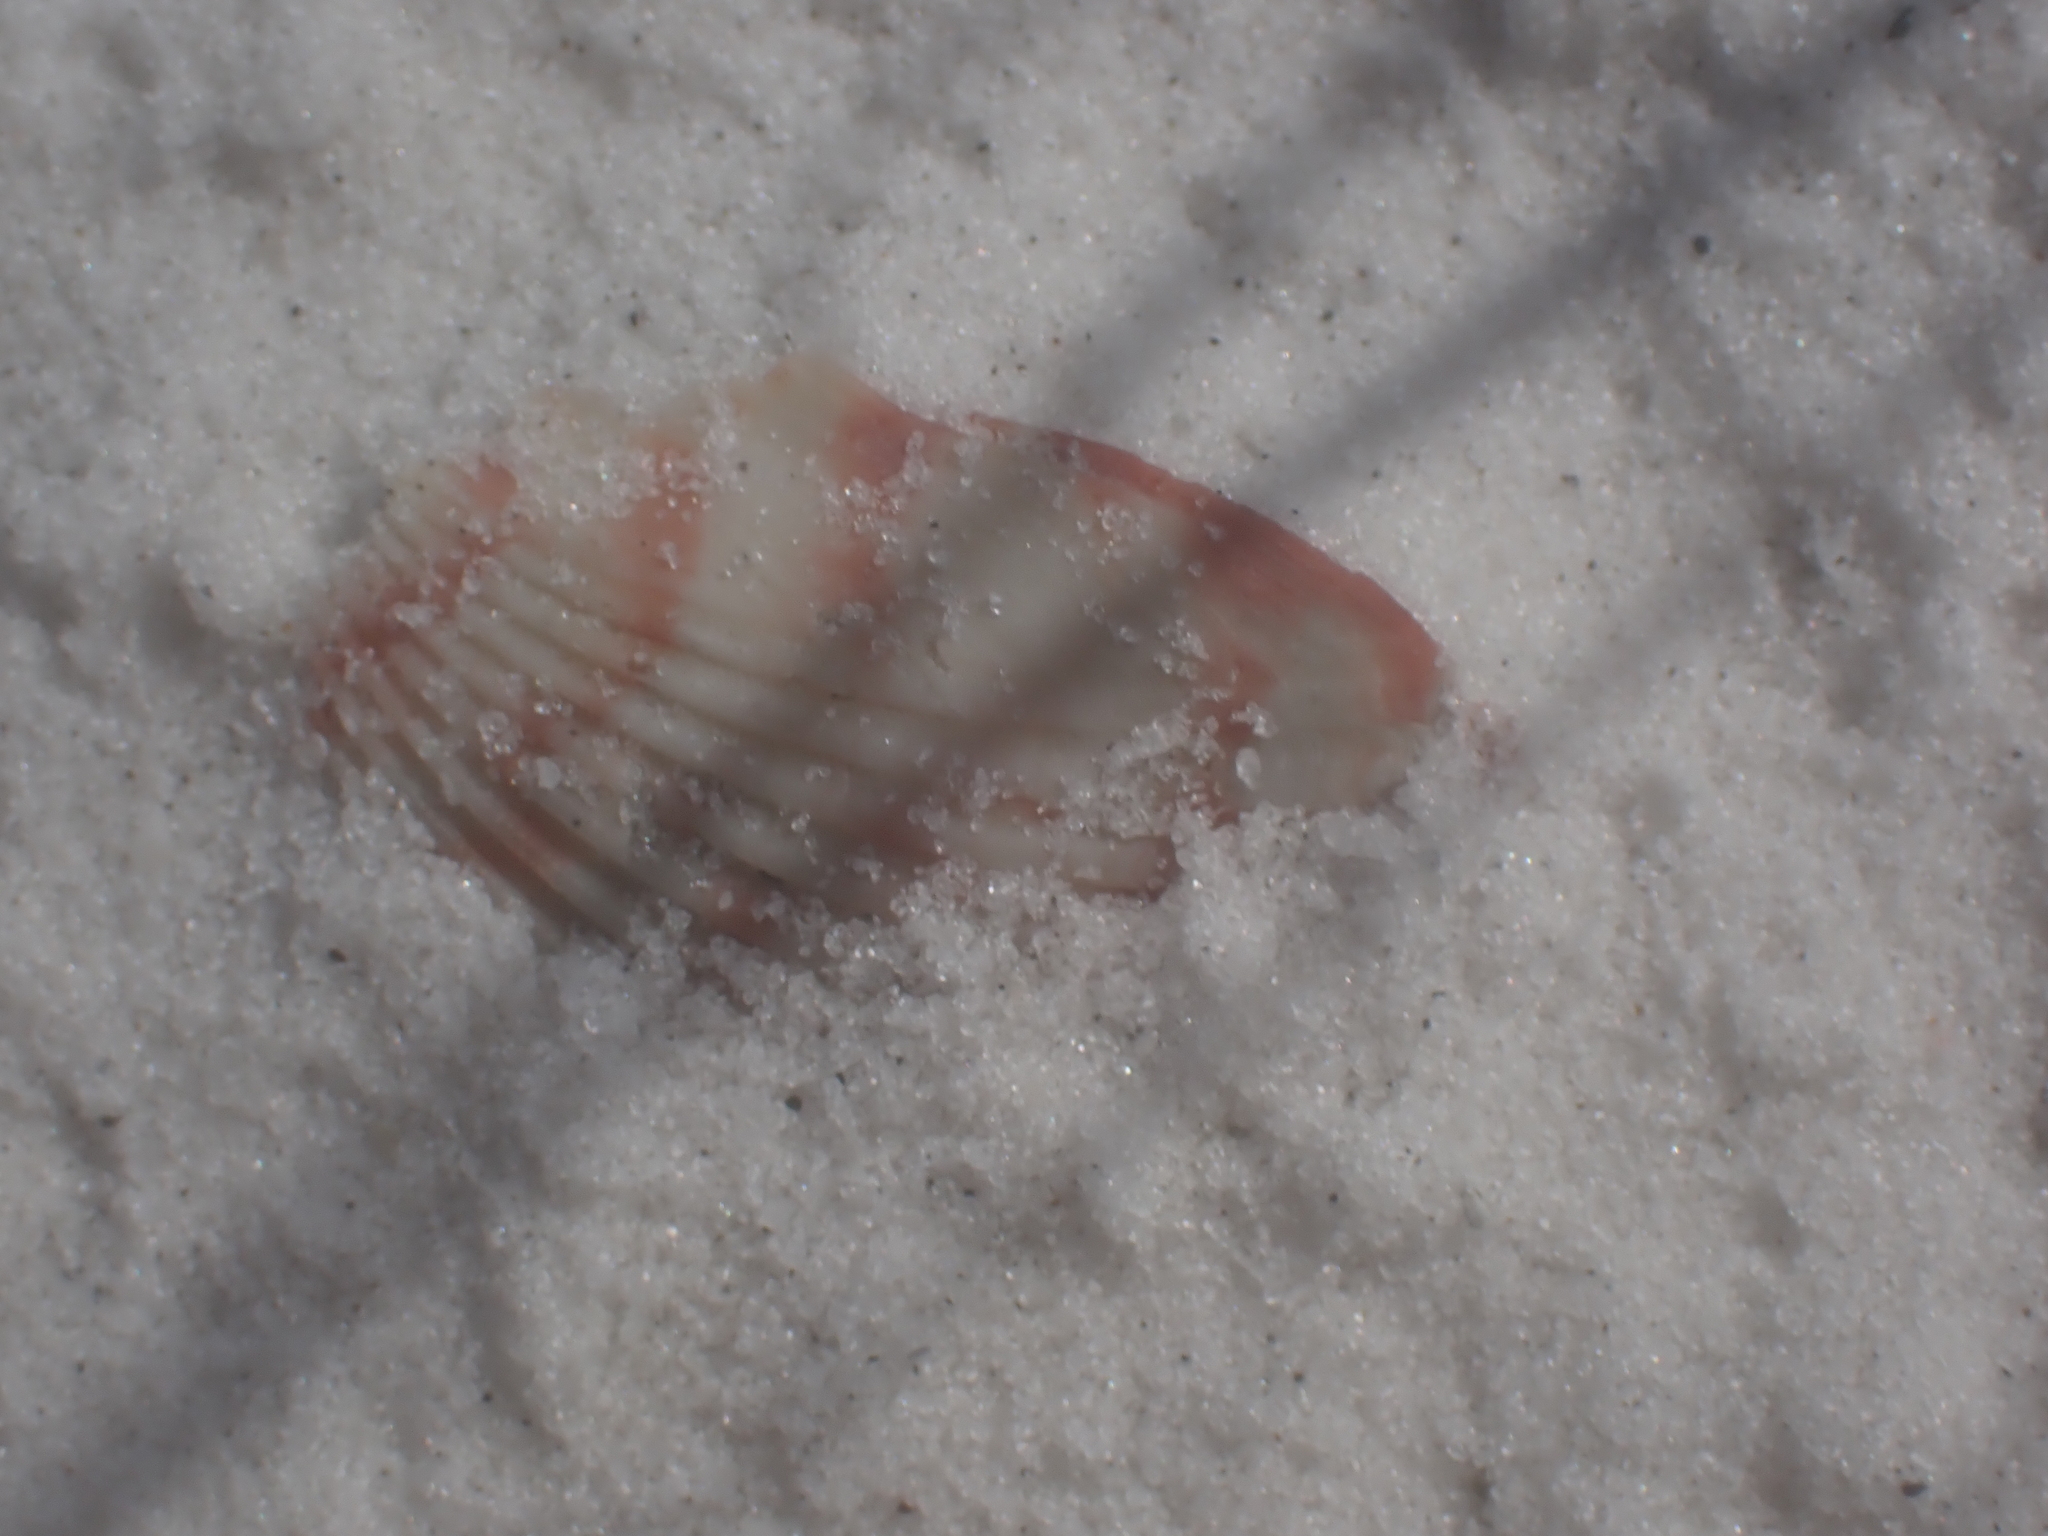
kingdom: Animalia
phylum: Mollusca
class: Bivalvia
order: Pectinida
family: Pectinidae
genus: Argopecten
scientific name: Argopecten gibbus
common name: Atlantic calico scallop
